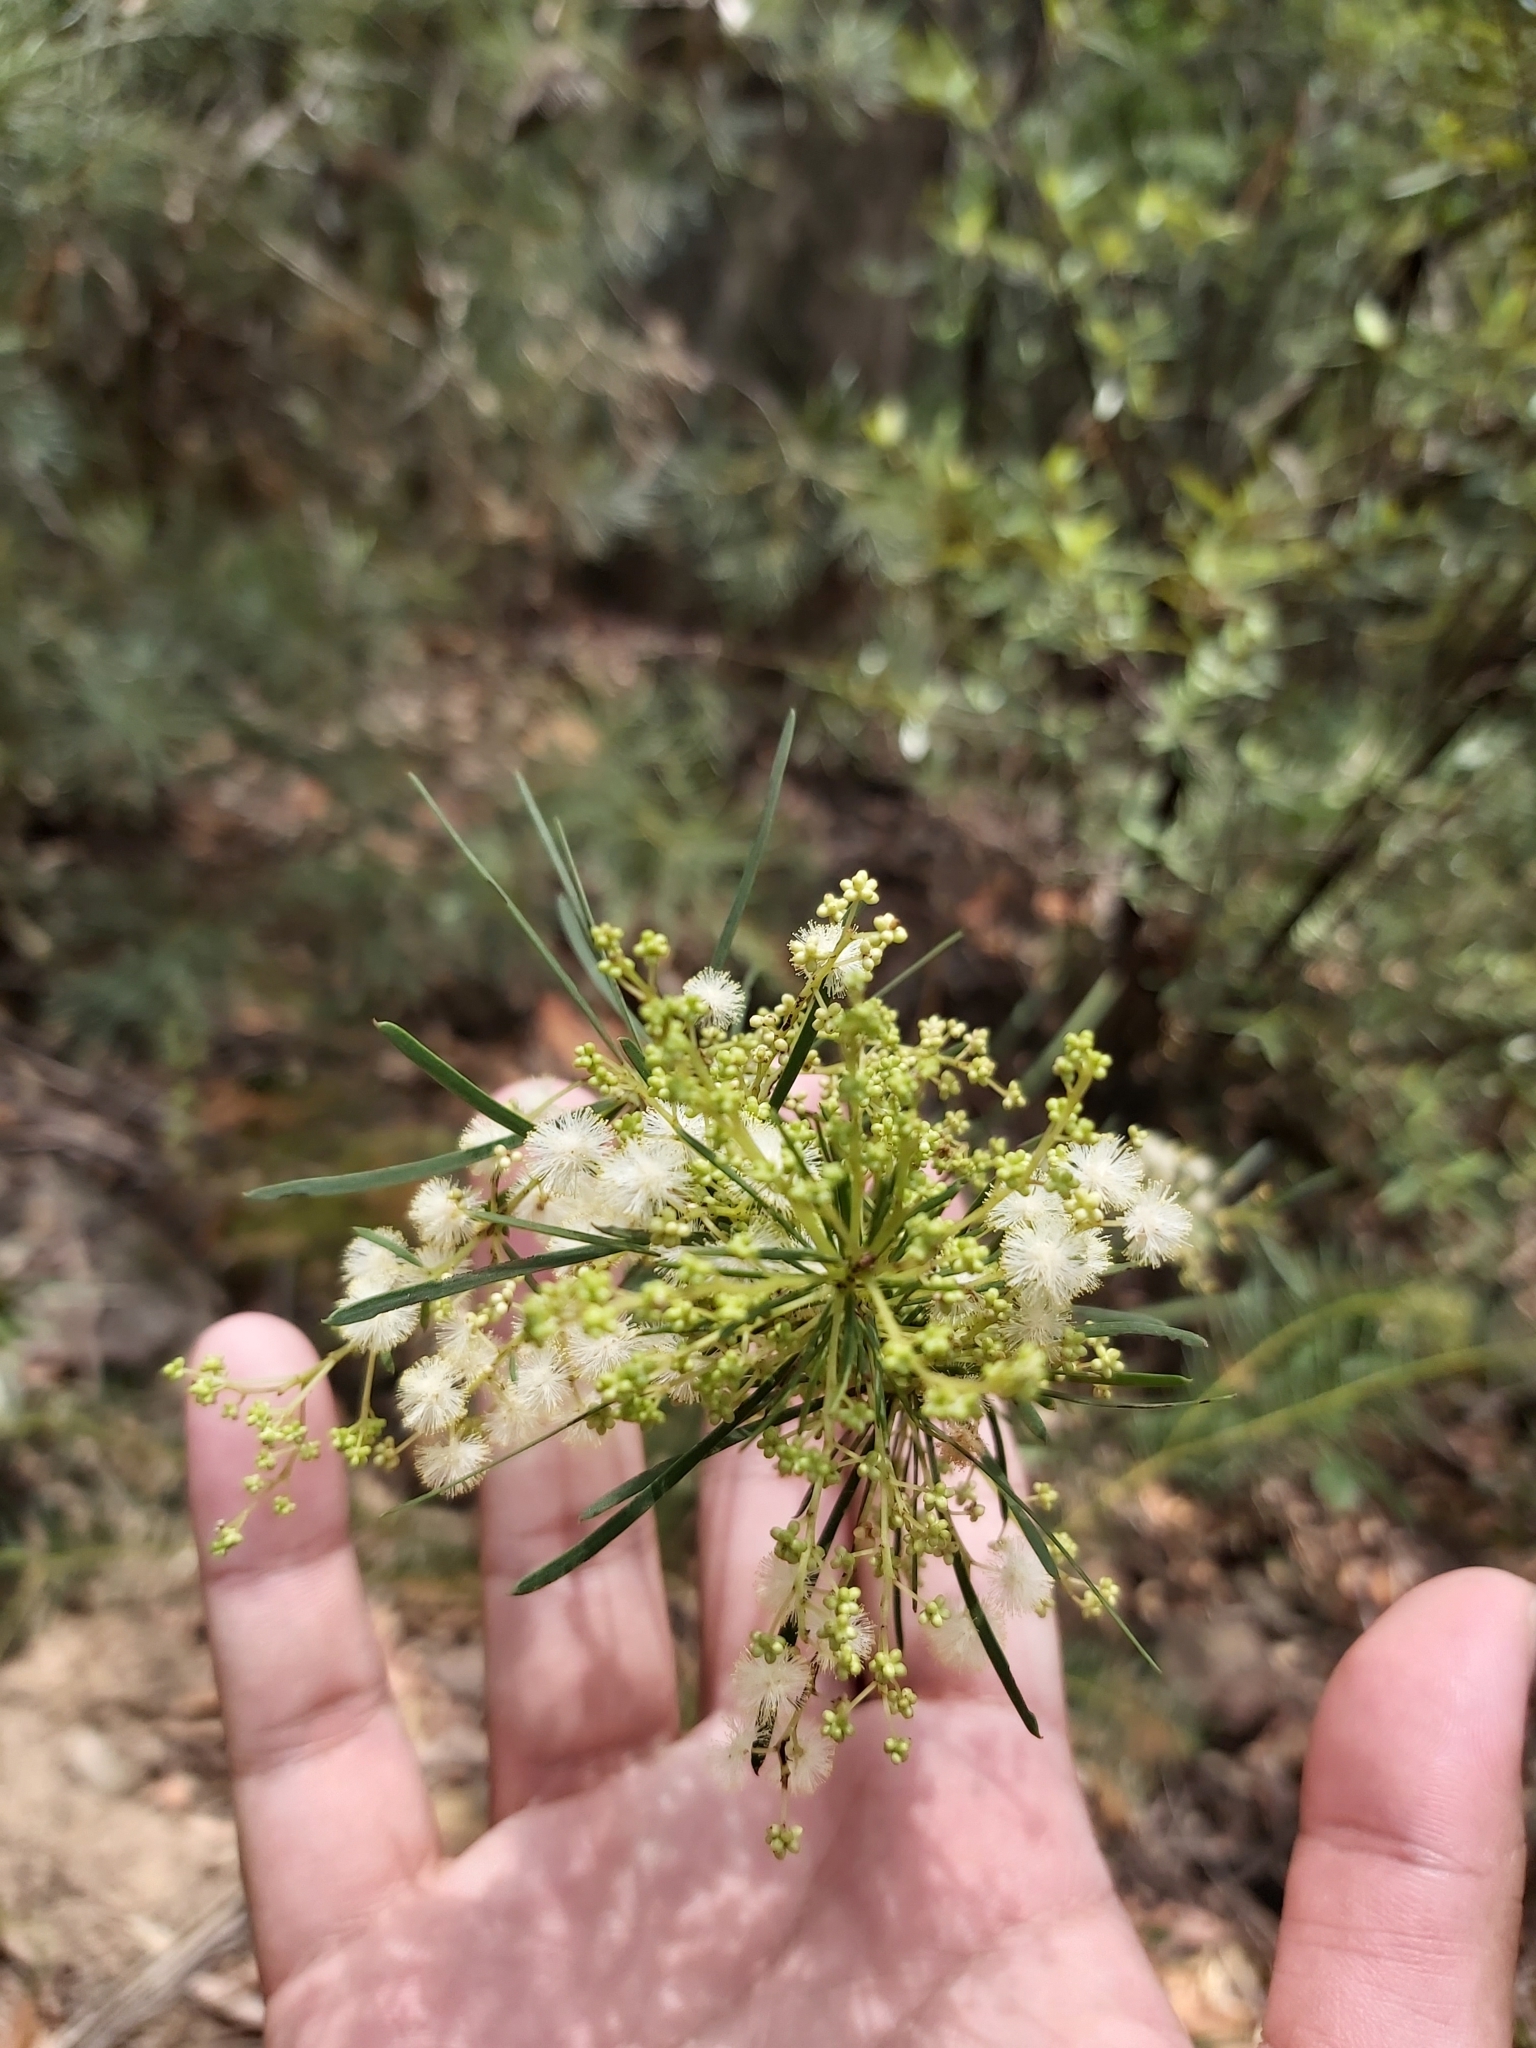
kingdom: Plantae
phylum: Tracheophyta
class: Magnoliopsida
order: Fabales
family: Fabaceae
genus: Acacia
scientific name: Acacia linifolia
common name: White wattle
